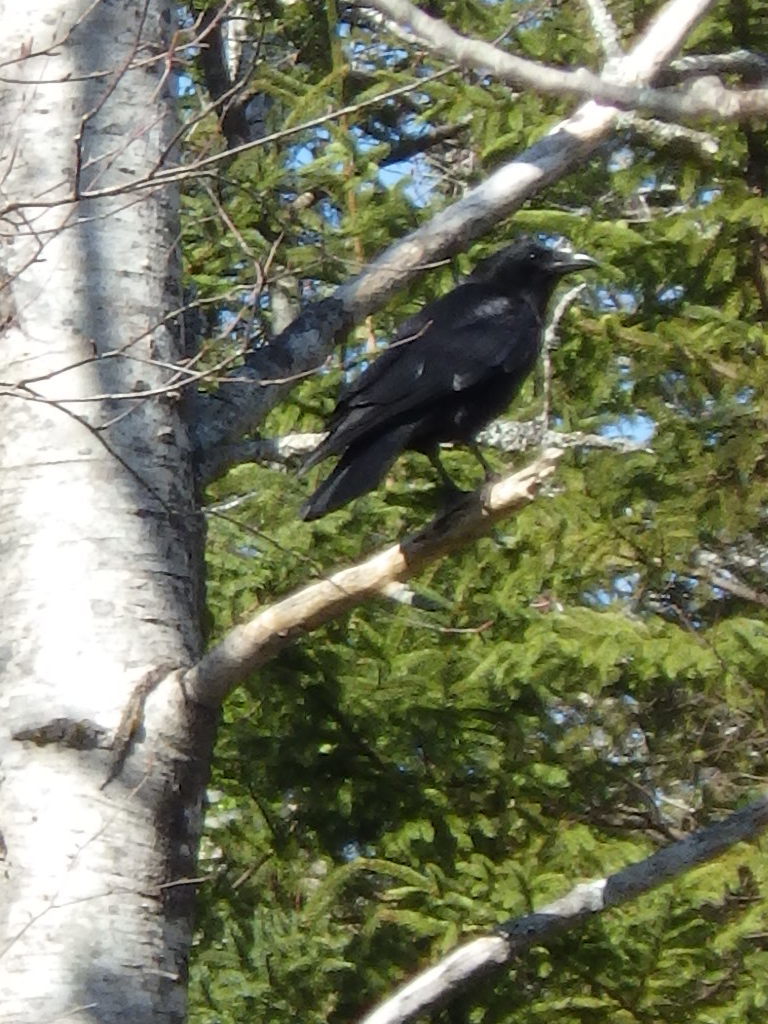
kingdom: Animalia
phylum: Chordata
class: Aves
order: Passeriformes
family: Corvidae
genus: Corvus
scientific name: Corvus brachyrhynchos
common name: American crow
